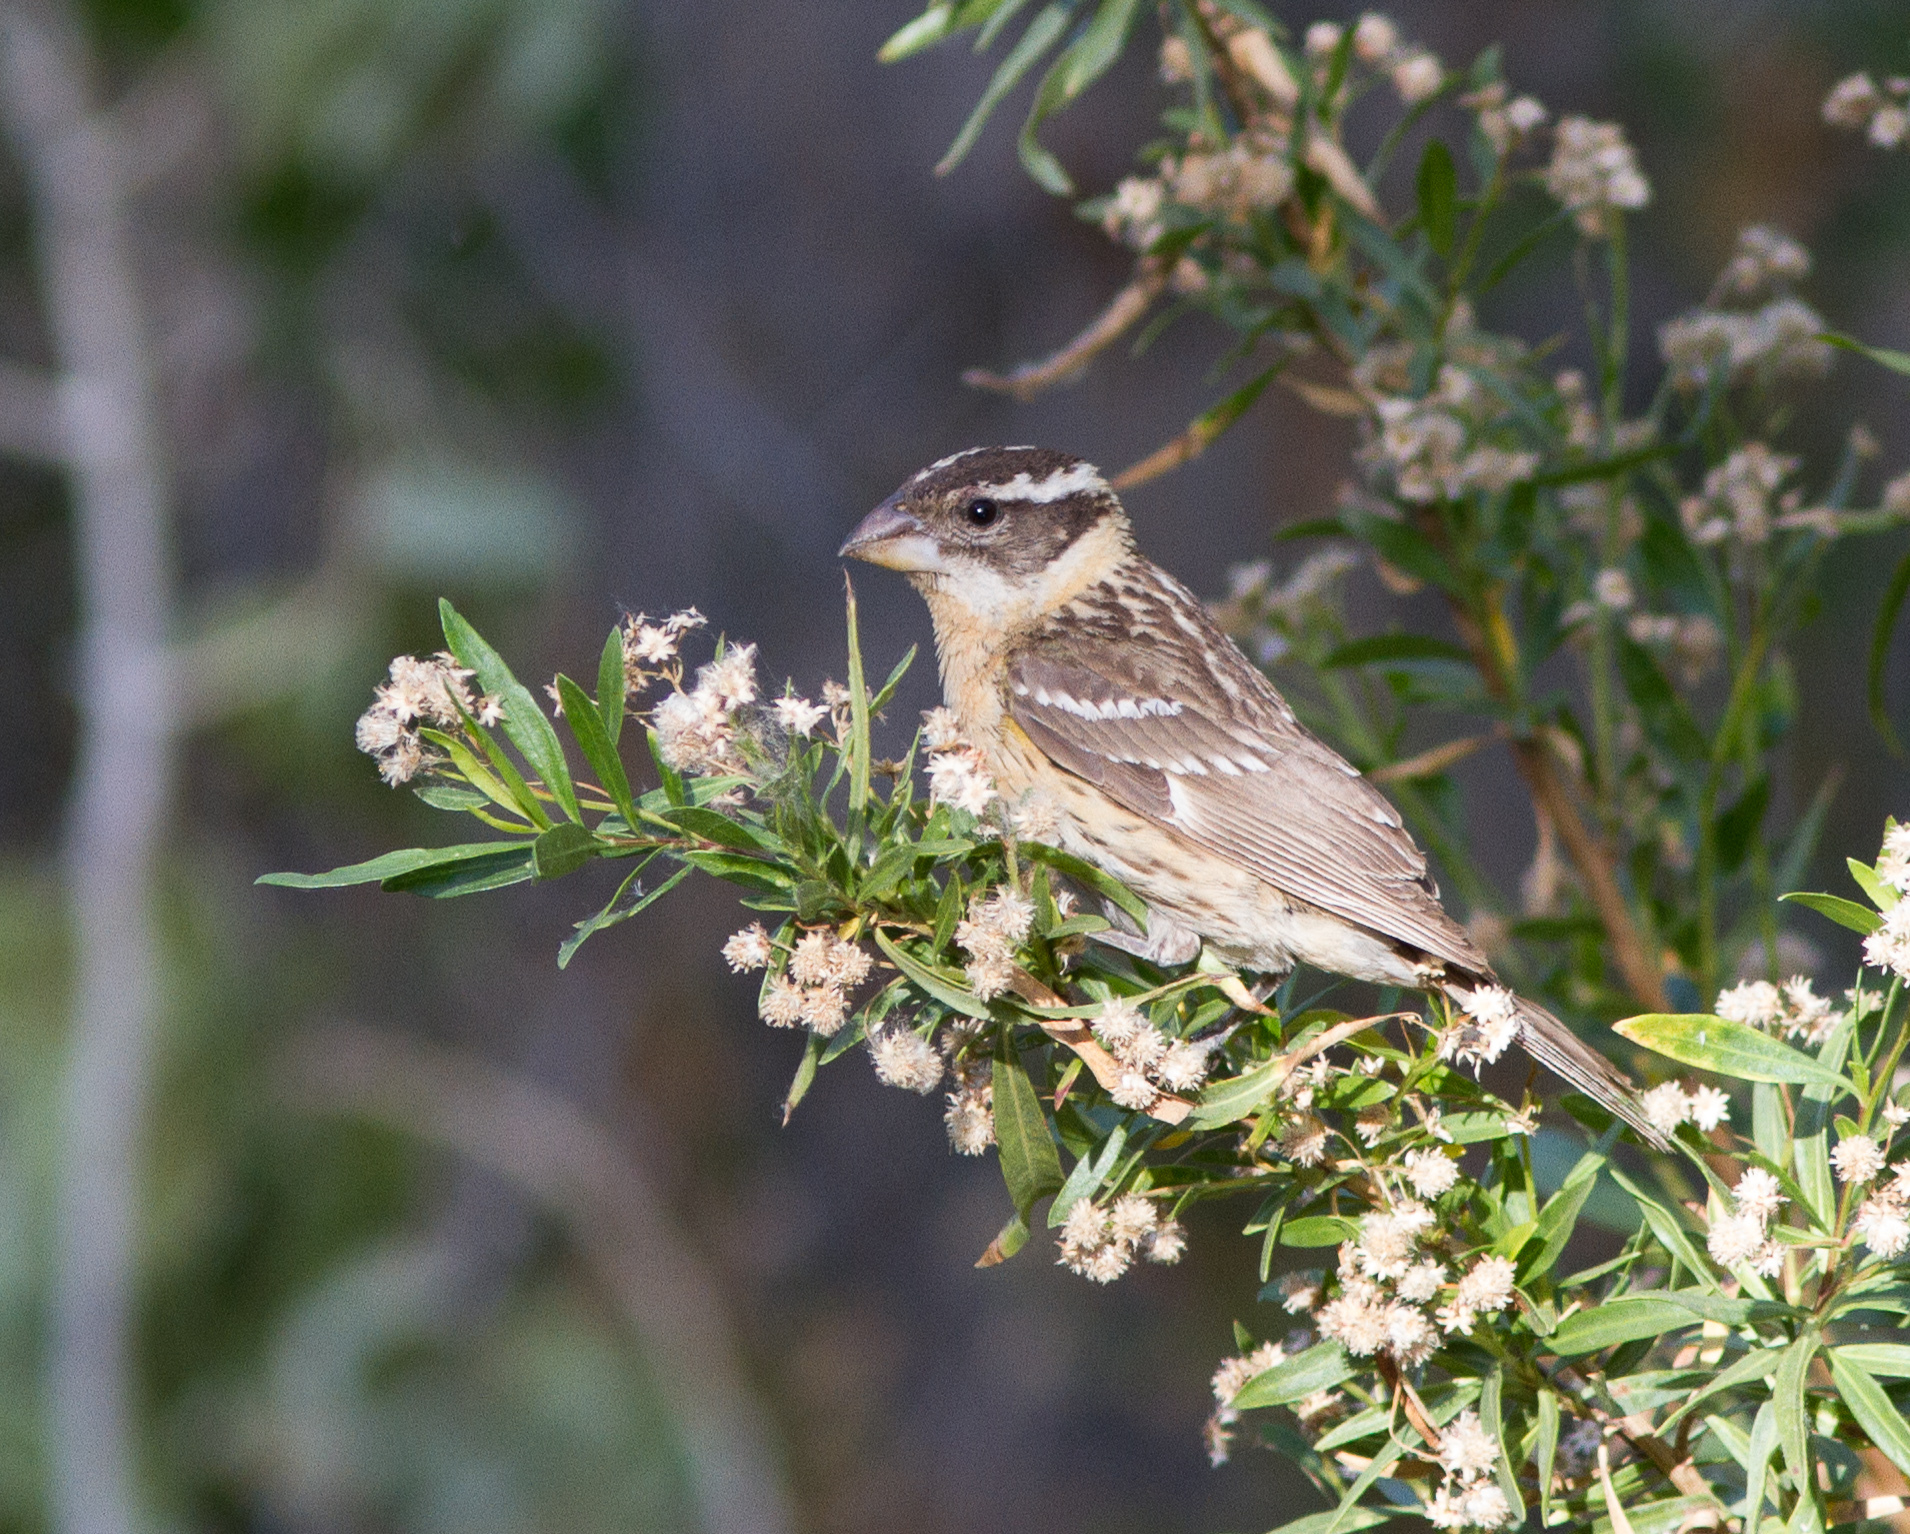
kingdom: Animalia
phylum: Chordata
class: Aves
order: Passeriformes
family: Cardinalidae
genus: Pheucticus
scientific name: Pheucticus melanocephalus
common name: Black-headed grosbeak
